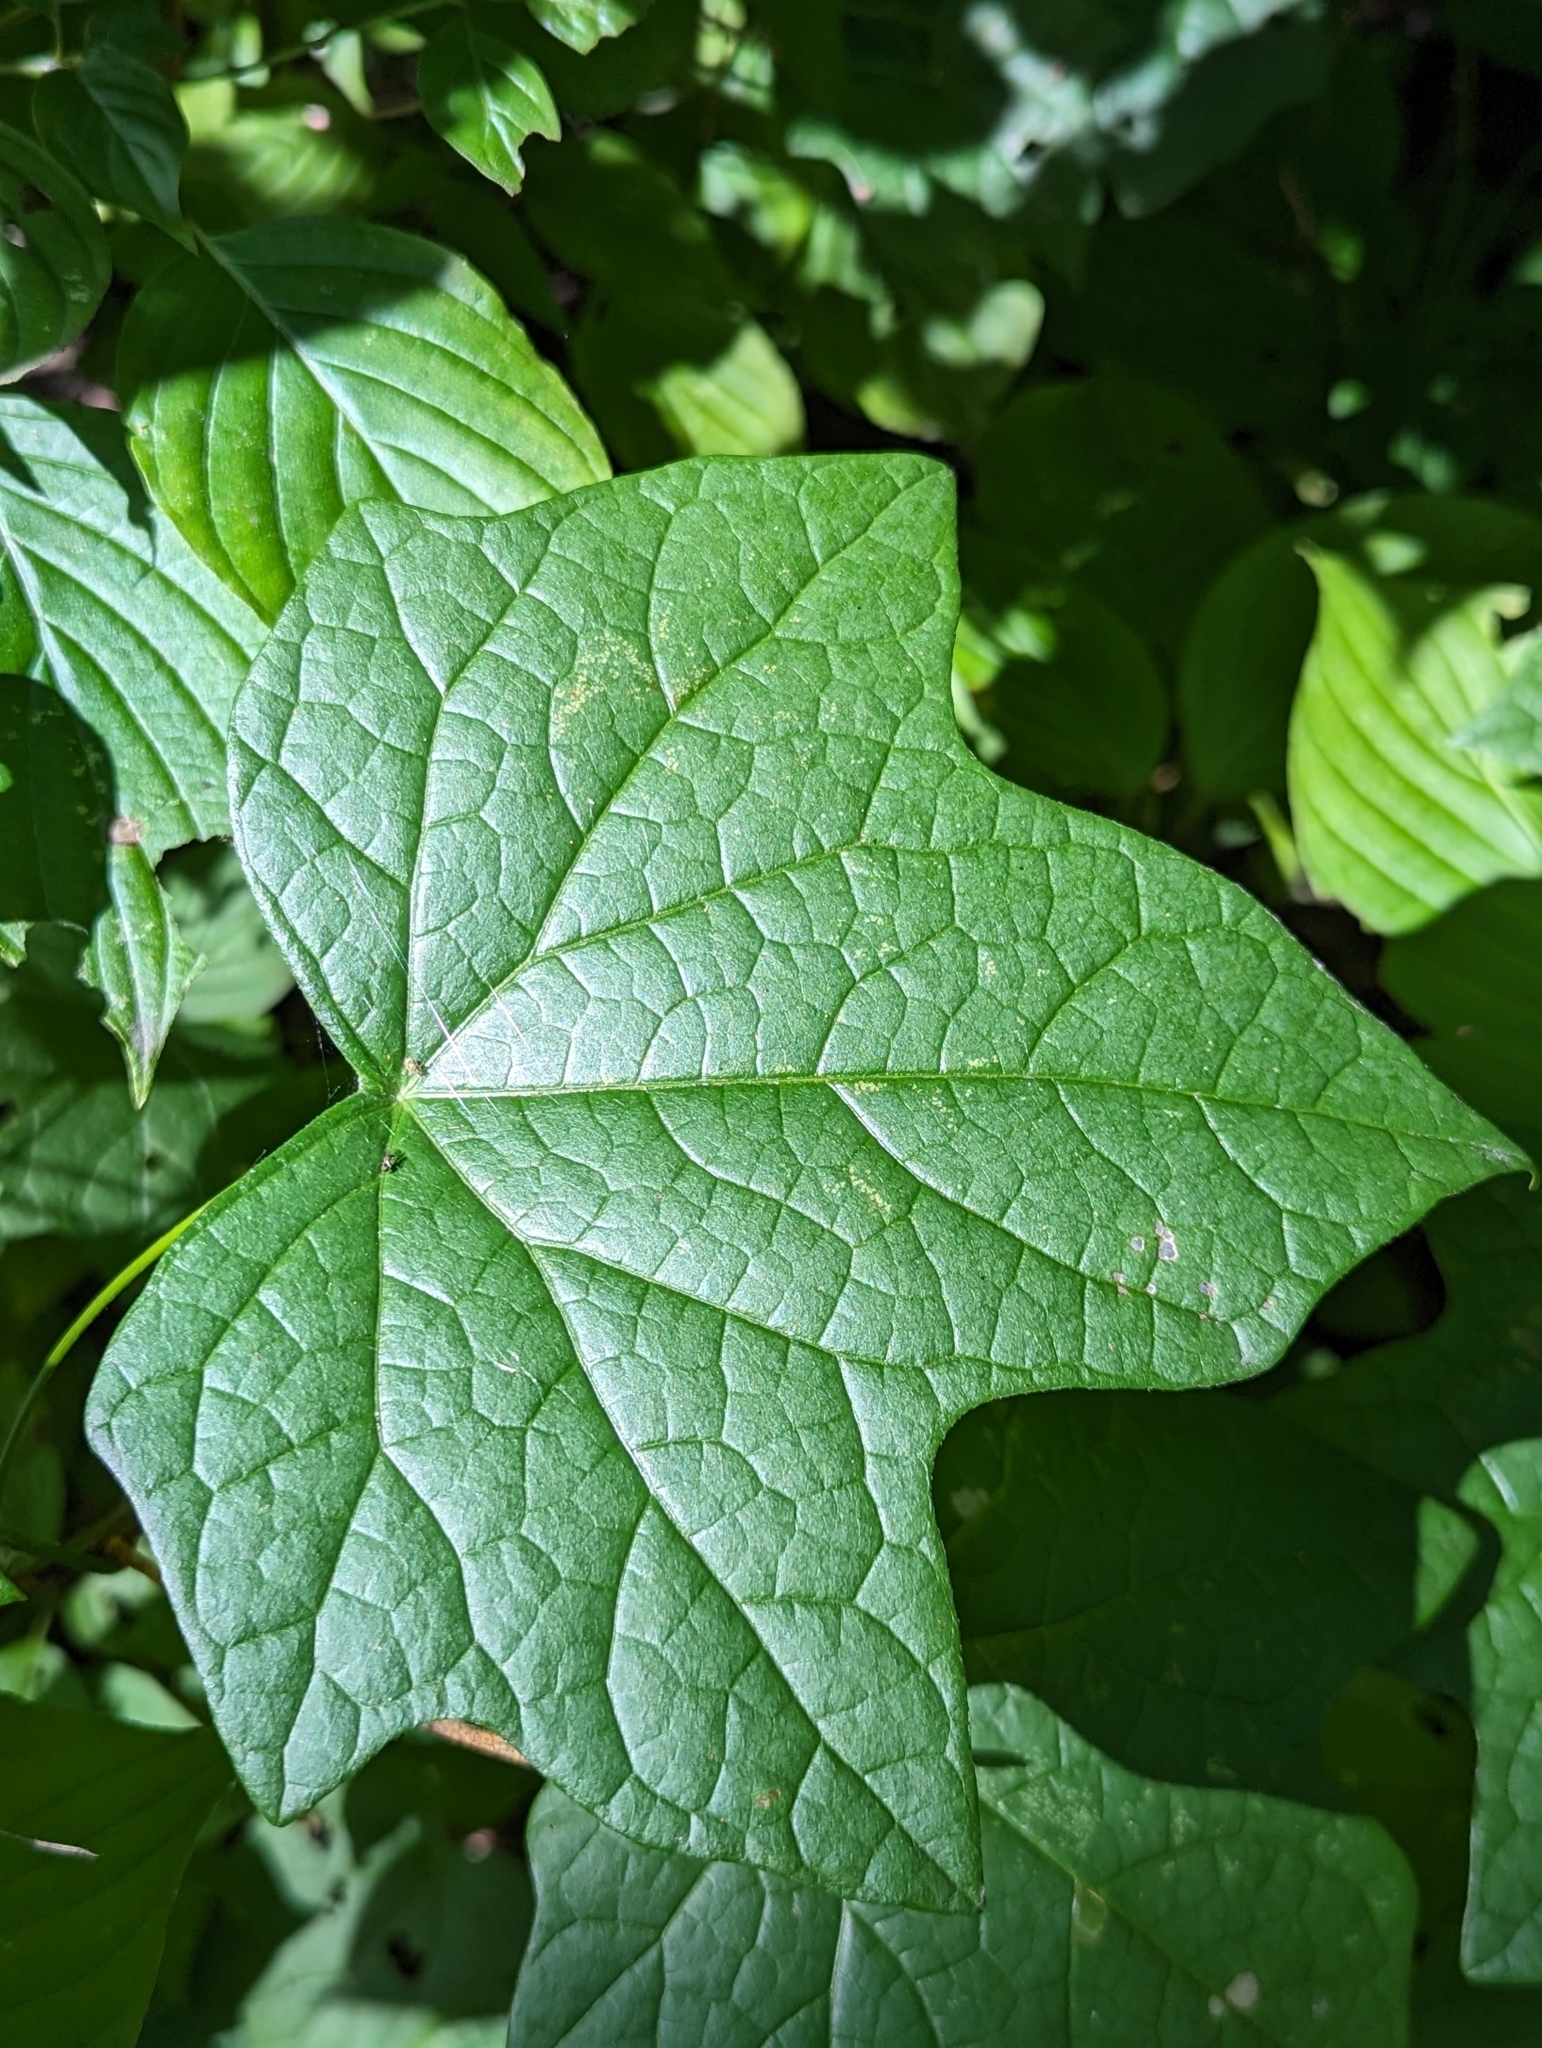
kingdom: Plantae
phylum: Tracheophyta
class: Magnoliopsida
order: Ranunculales
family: Menispermaceae
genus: Menispermum
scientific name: Menispermum canadense
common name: Moonseed
